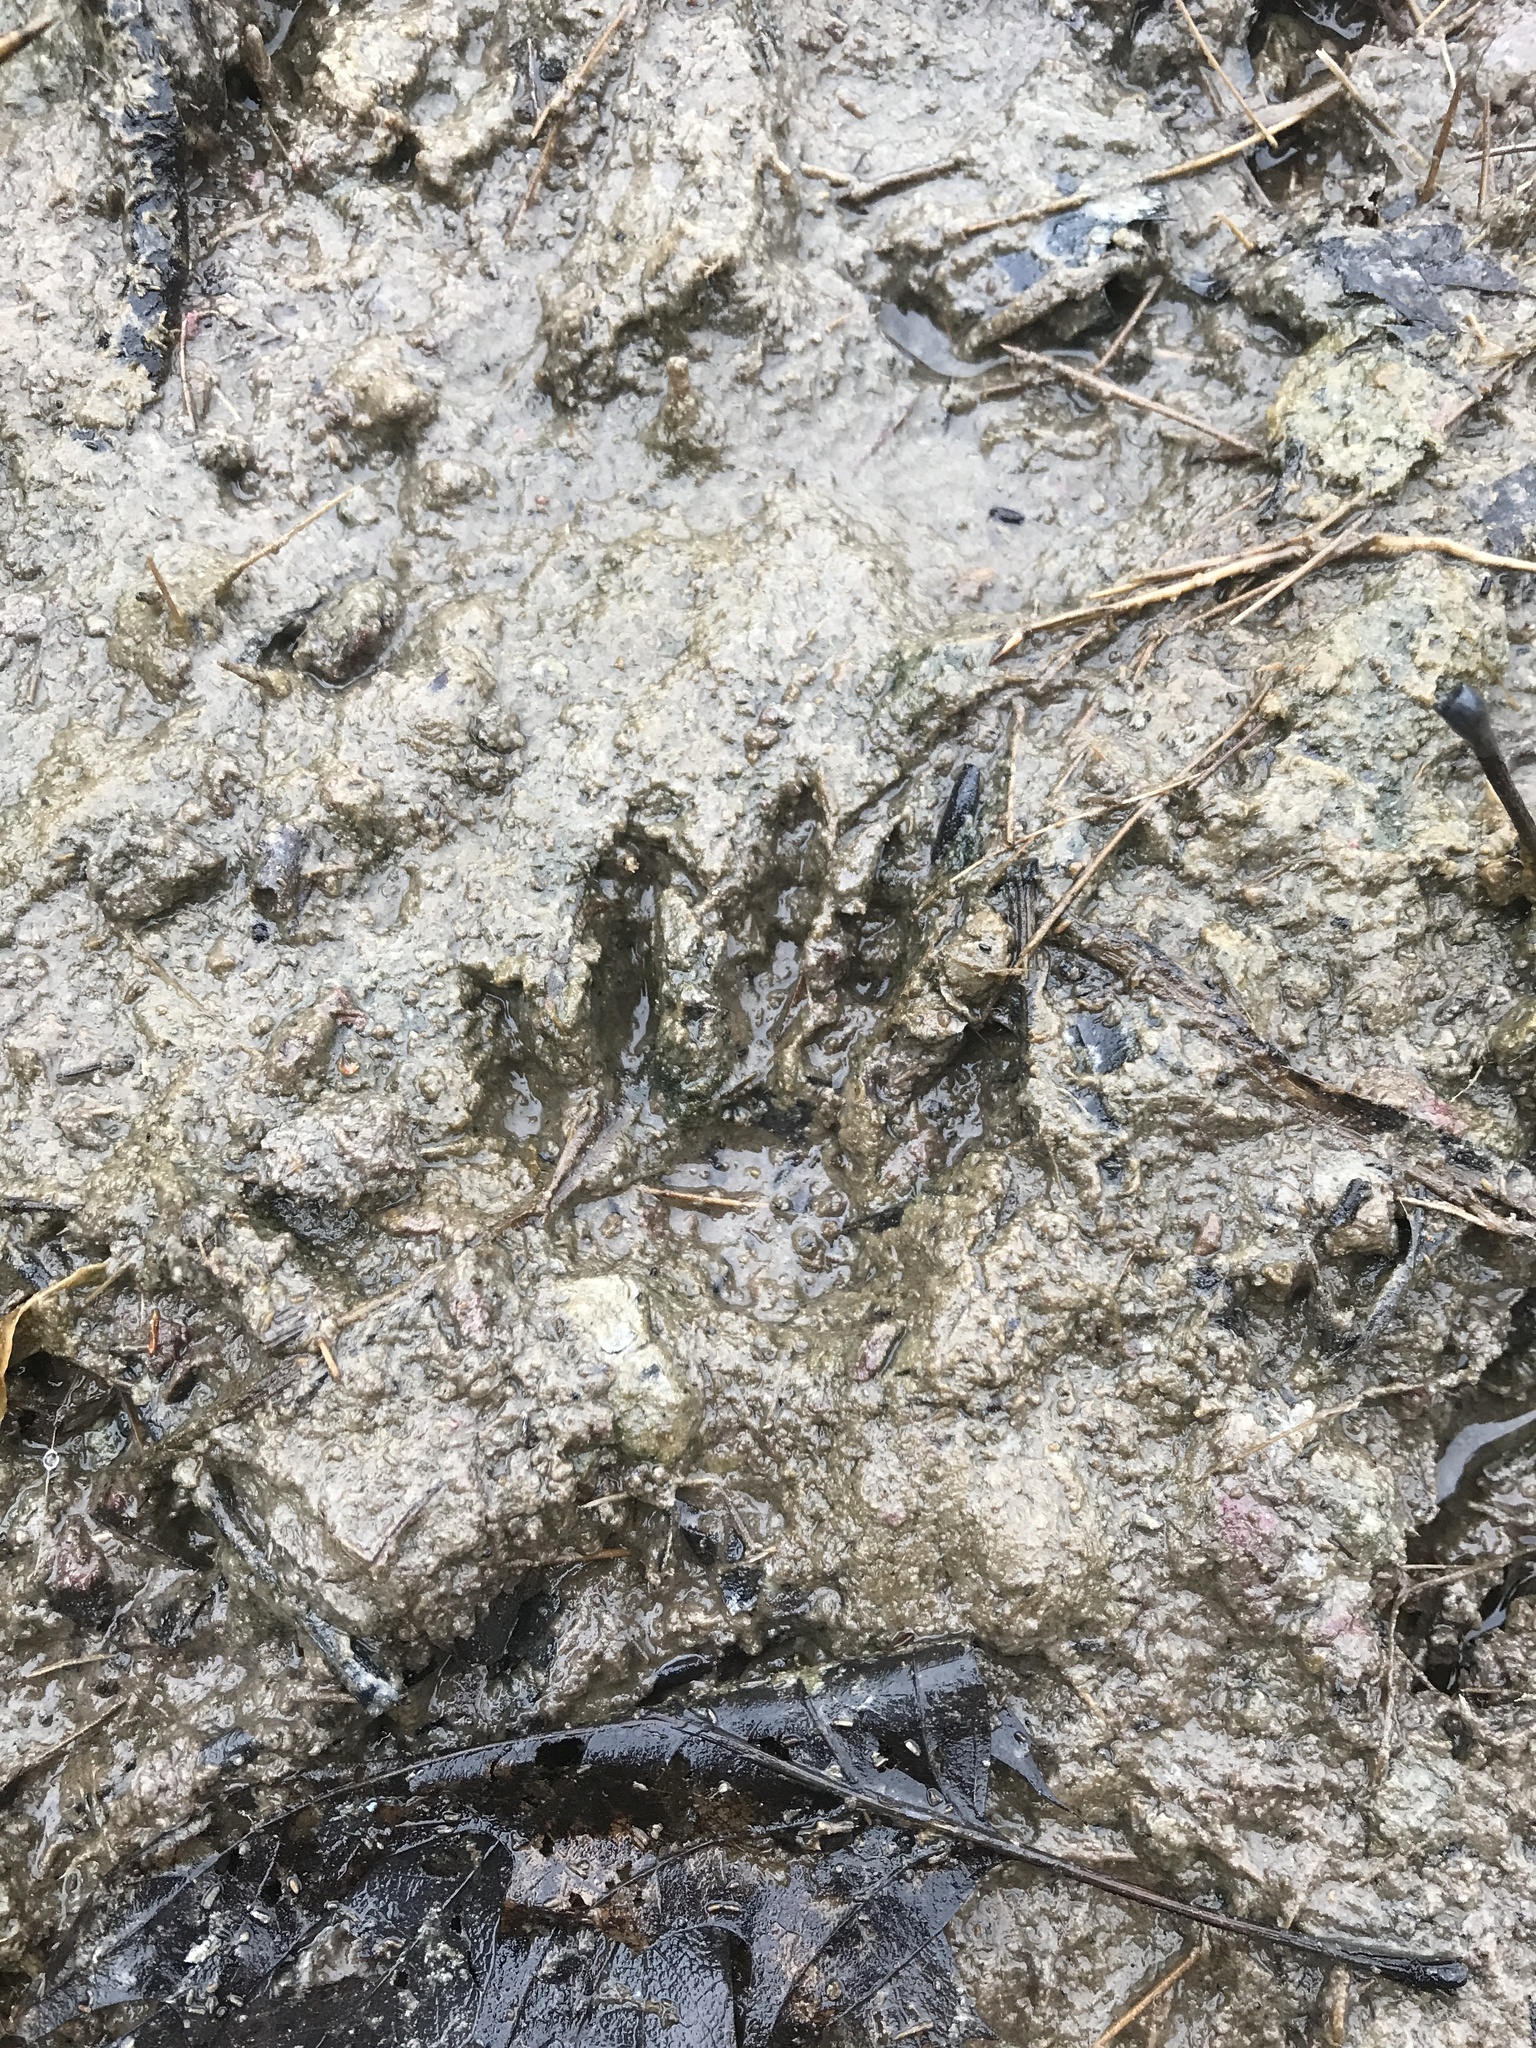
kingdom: Animalia
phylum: Chordata
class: Mammalia
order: Carnivora
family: Procyonidae
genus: Procyon
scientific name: Procyon lotor
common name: Raccoon
